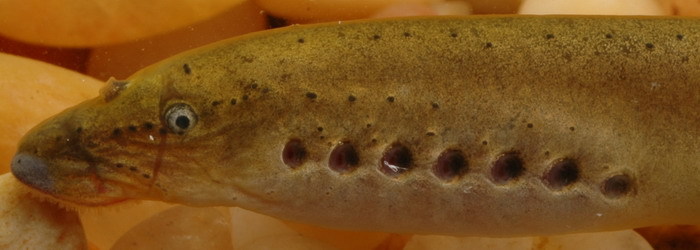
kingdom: Animalia
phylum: Chordata
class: Petromyzonti
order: Petromyzontiformes
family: Petromyzontidae
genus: Ichthyomyzon
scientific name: Ichthyomyzon gagei
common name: Southern brook lamprey
